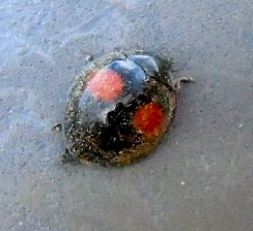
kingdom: Animalia
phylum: Arthropoda
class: Insecta
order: Coleoptera
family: Coccinellidae
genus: Chilocorus
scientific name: Chilocorus cacti
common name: Cactus lady beetle
